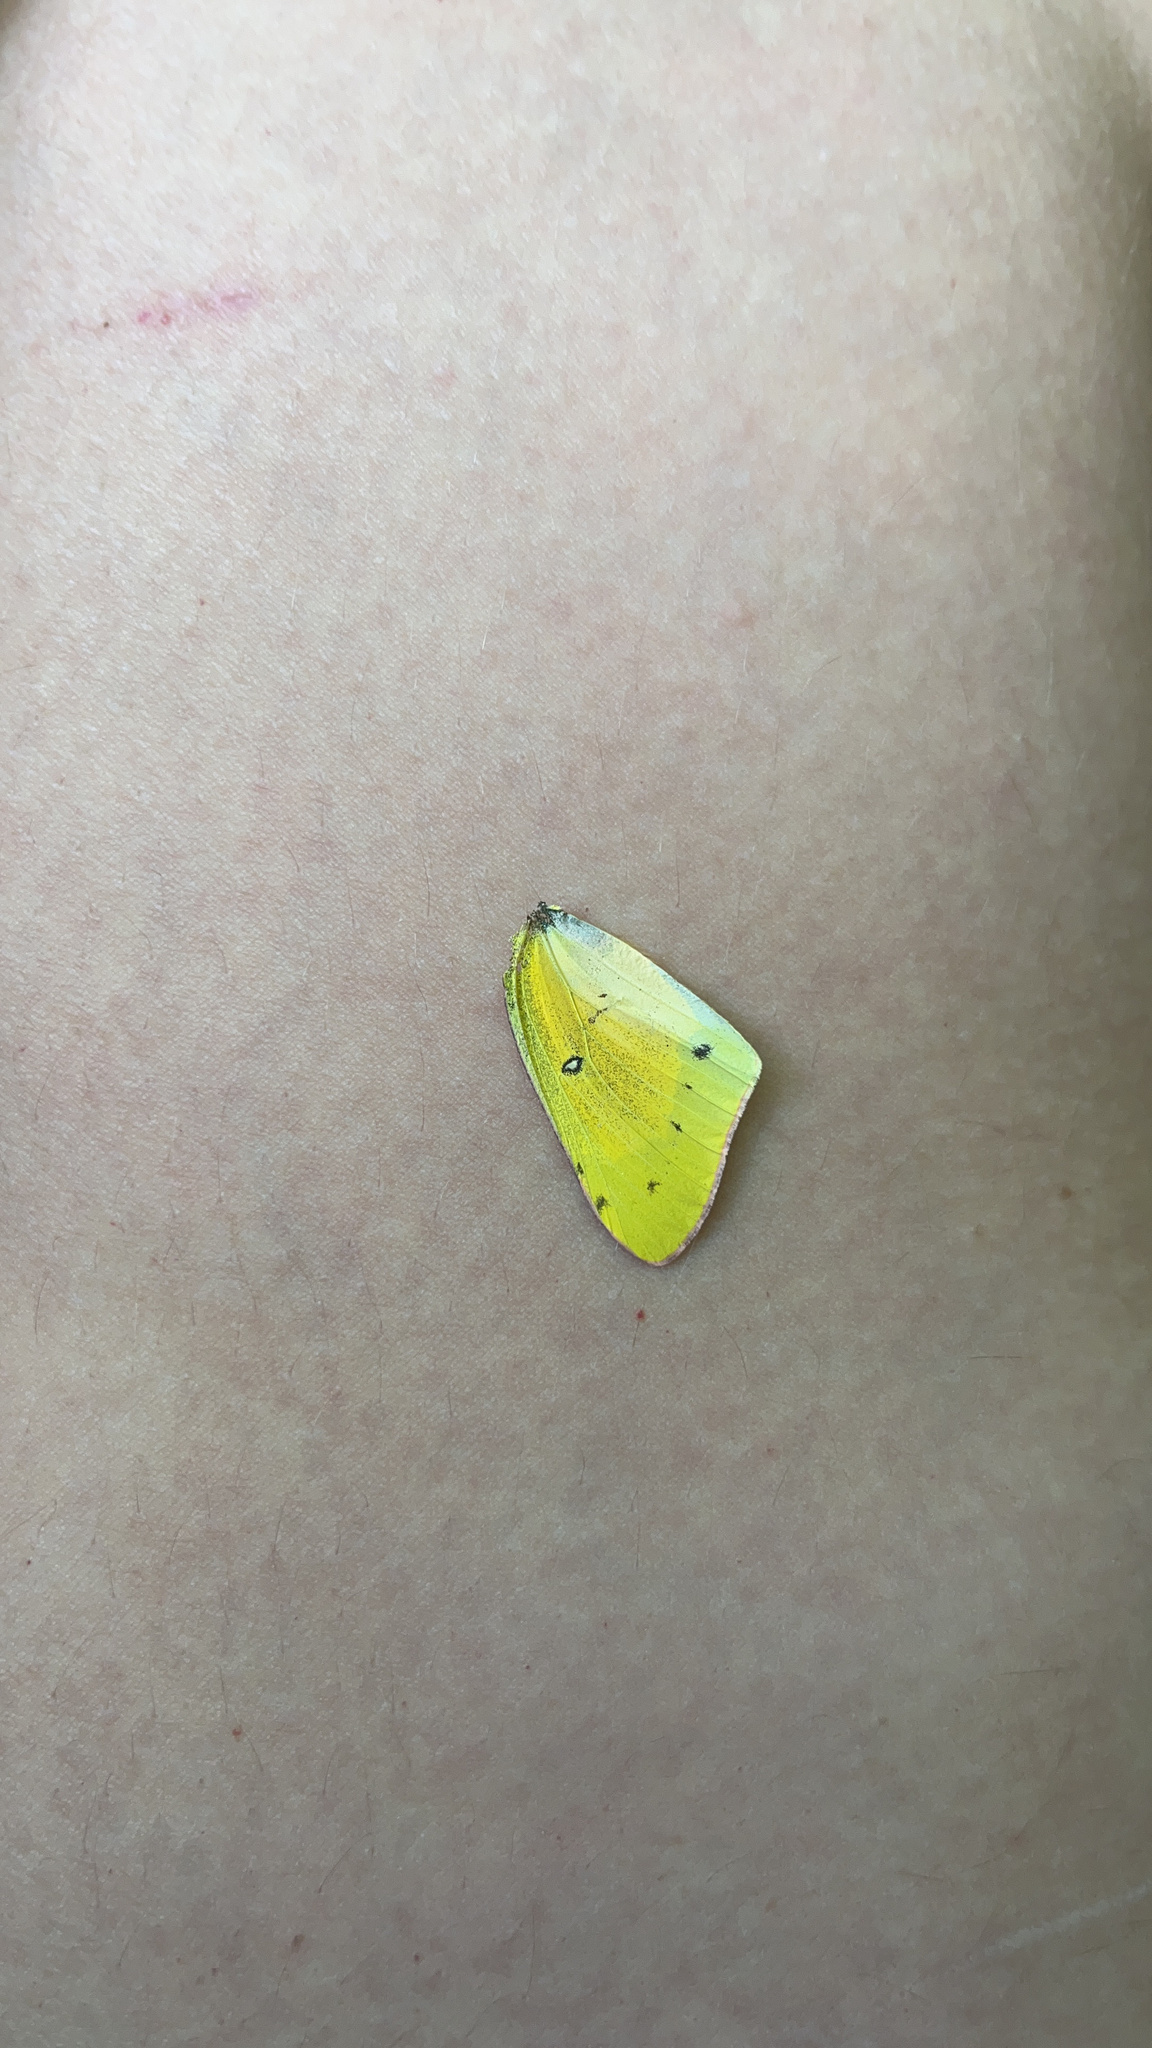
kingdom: Animalia
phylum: Arthropoda
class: Insecta
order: Lepidoptera
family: Pieridae
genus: Colias
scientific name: Colias eurytheme
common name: Alfalfa butterfly
